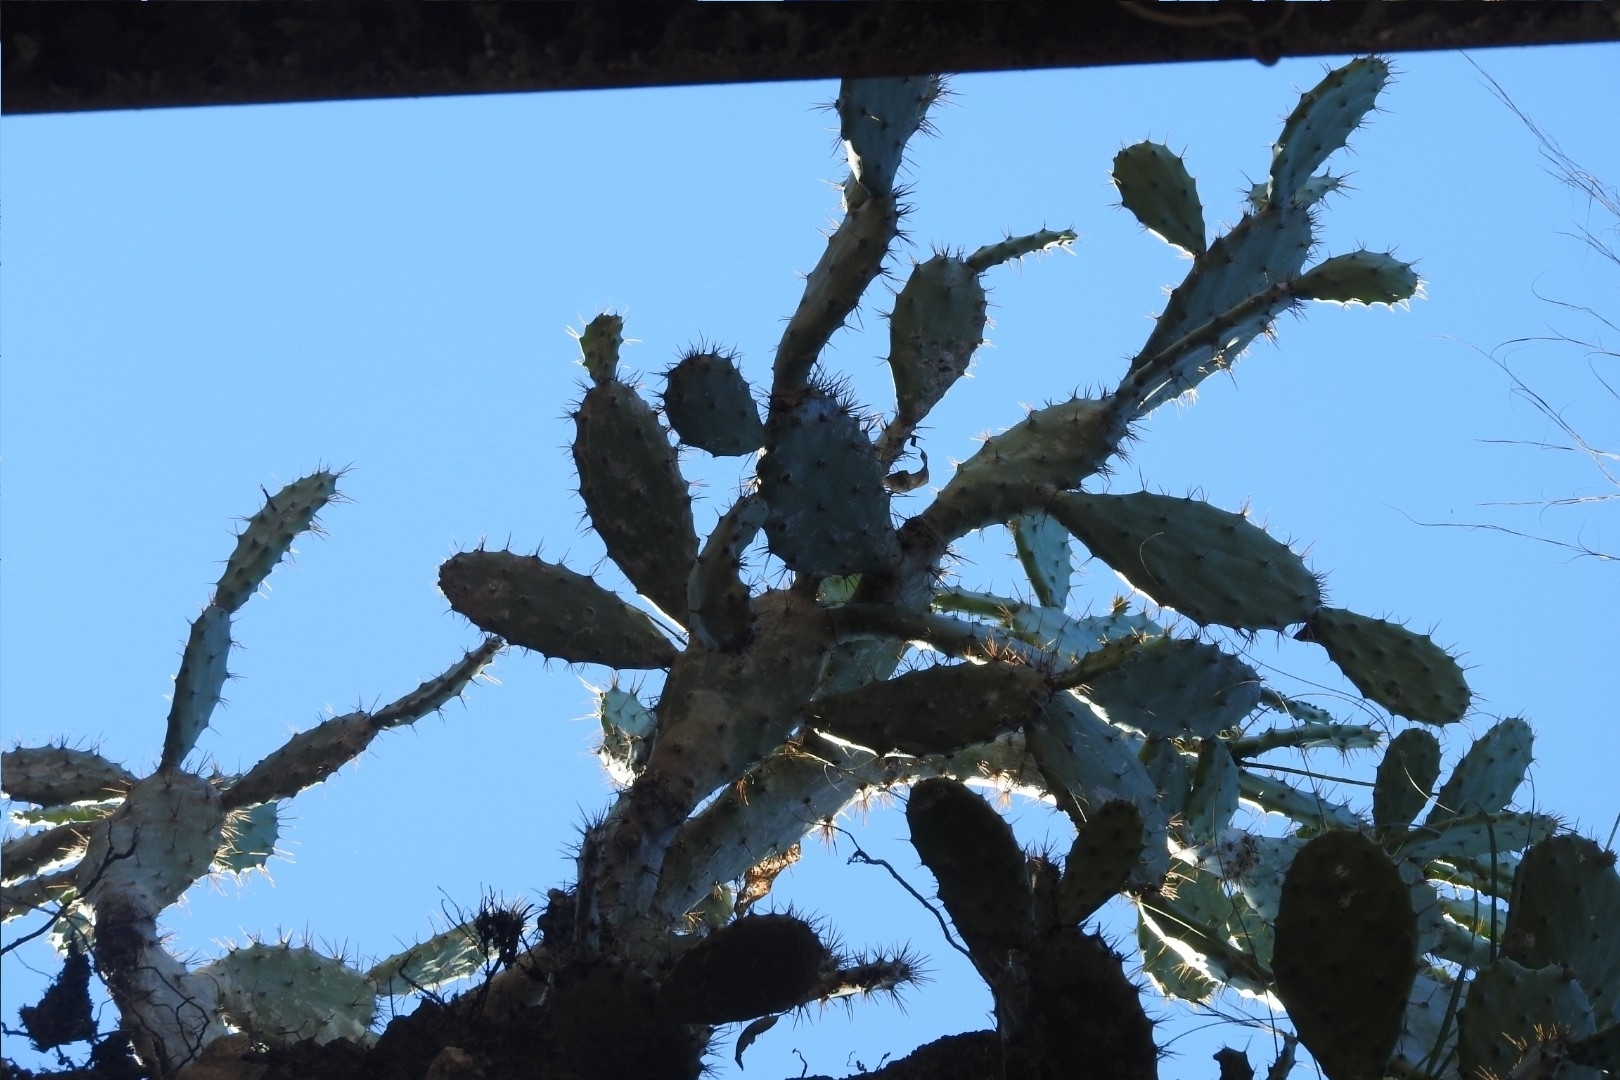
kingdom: Plantae
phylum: Tracheophyta
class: Magnoliopsida
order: Caryophyllales
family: Cactaceae
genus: Opuntia
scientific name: Opuntia hyptiacantha
